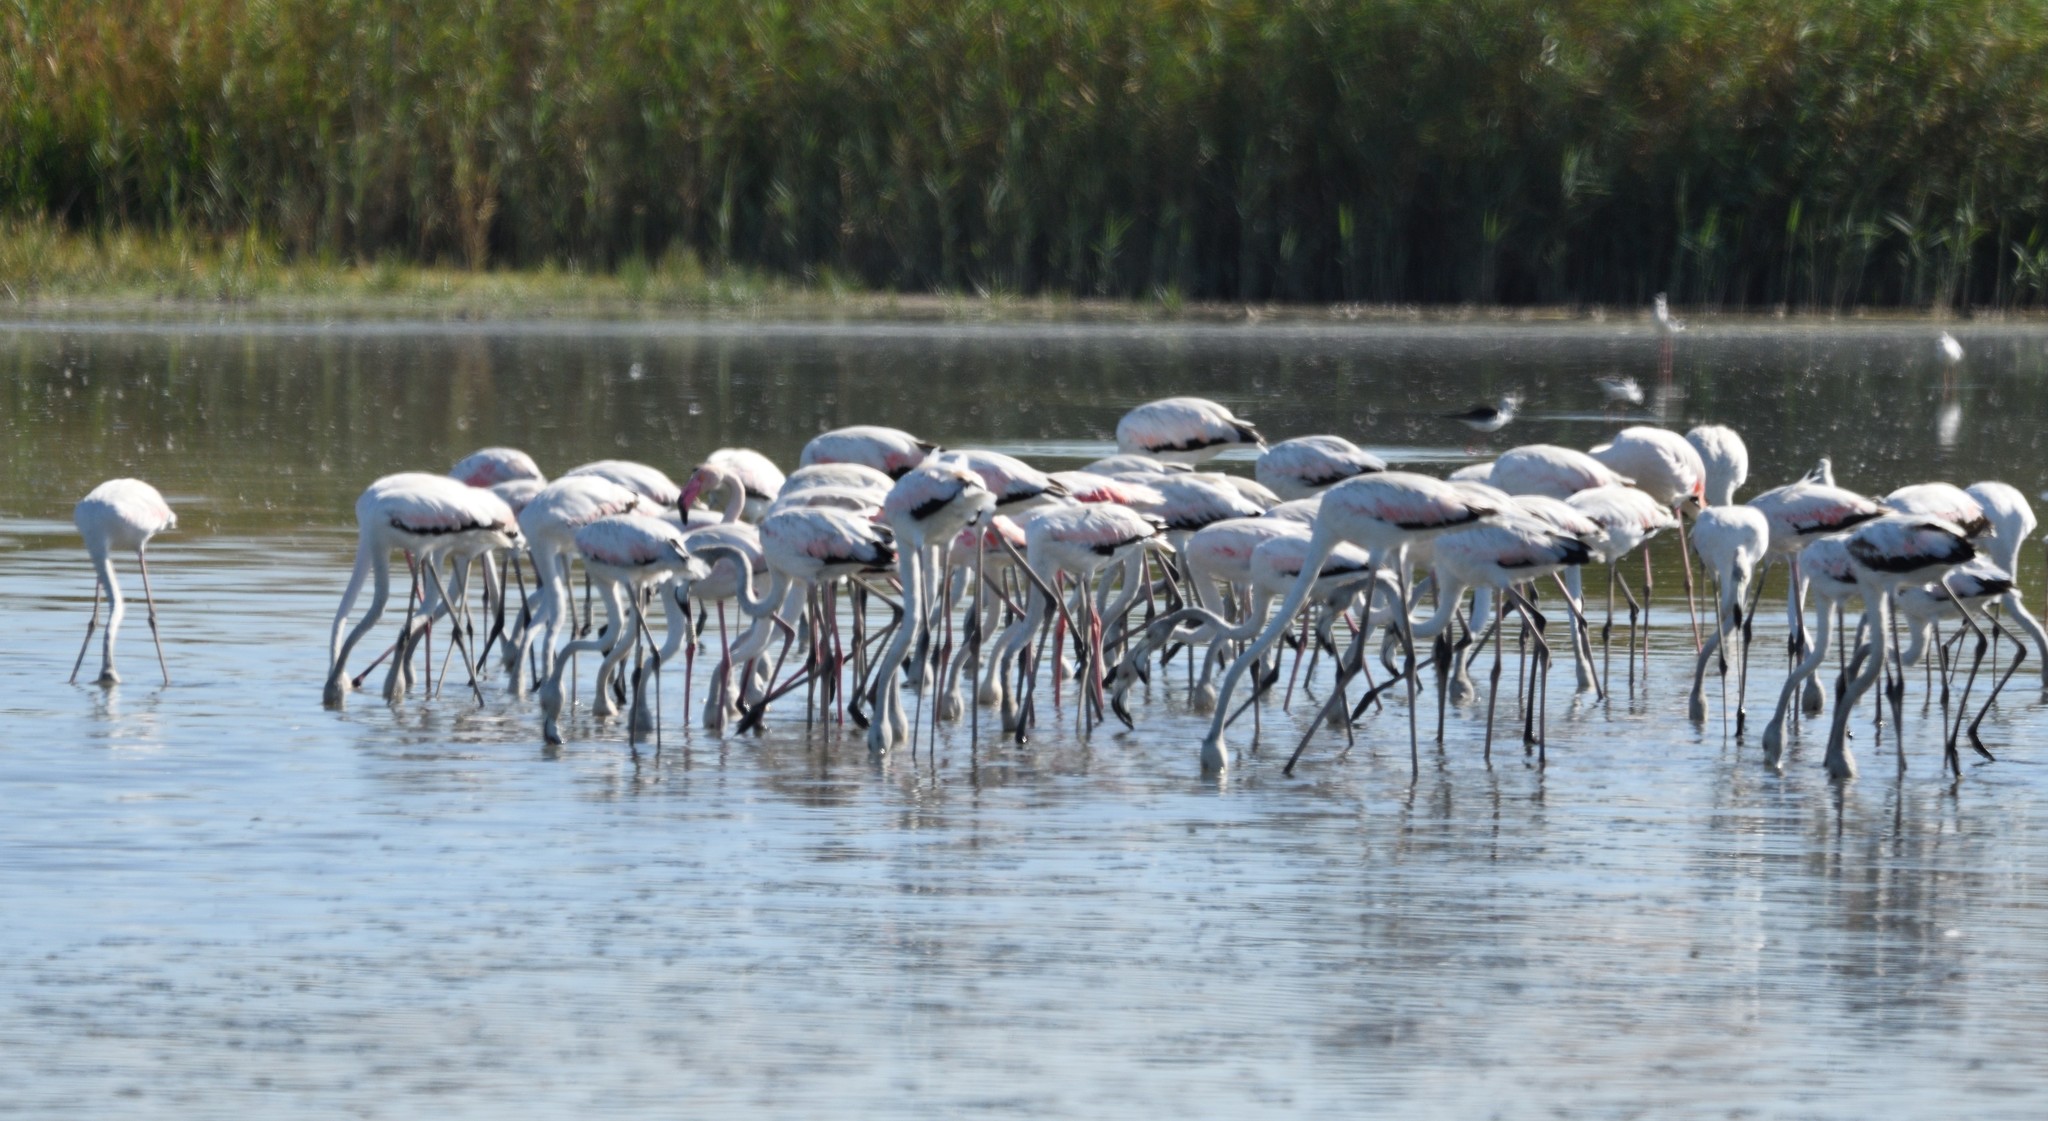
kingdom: Animalia
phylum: Chordata
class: Aves
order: Phoenicopteriformes
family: Phoenicopteridae
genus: Phoenicopterus
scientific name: Phoenicopterus roseus
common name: Greater flamingo
